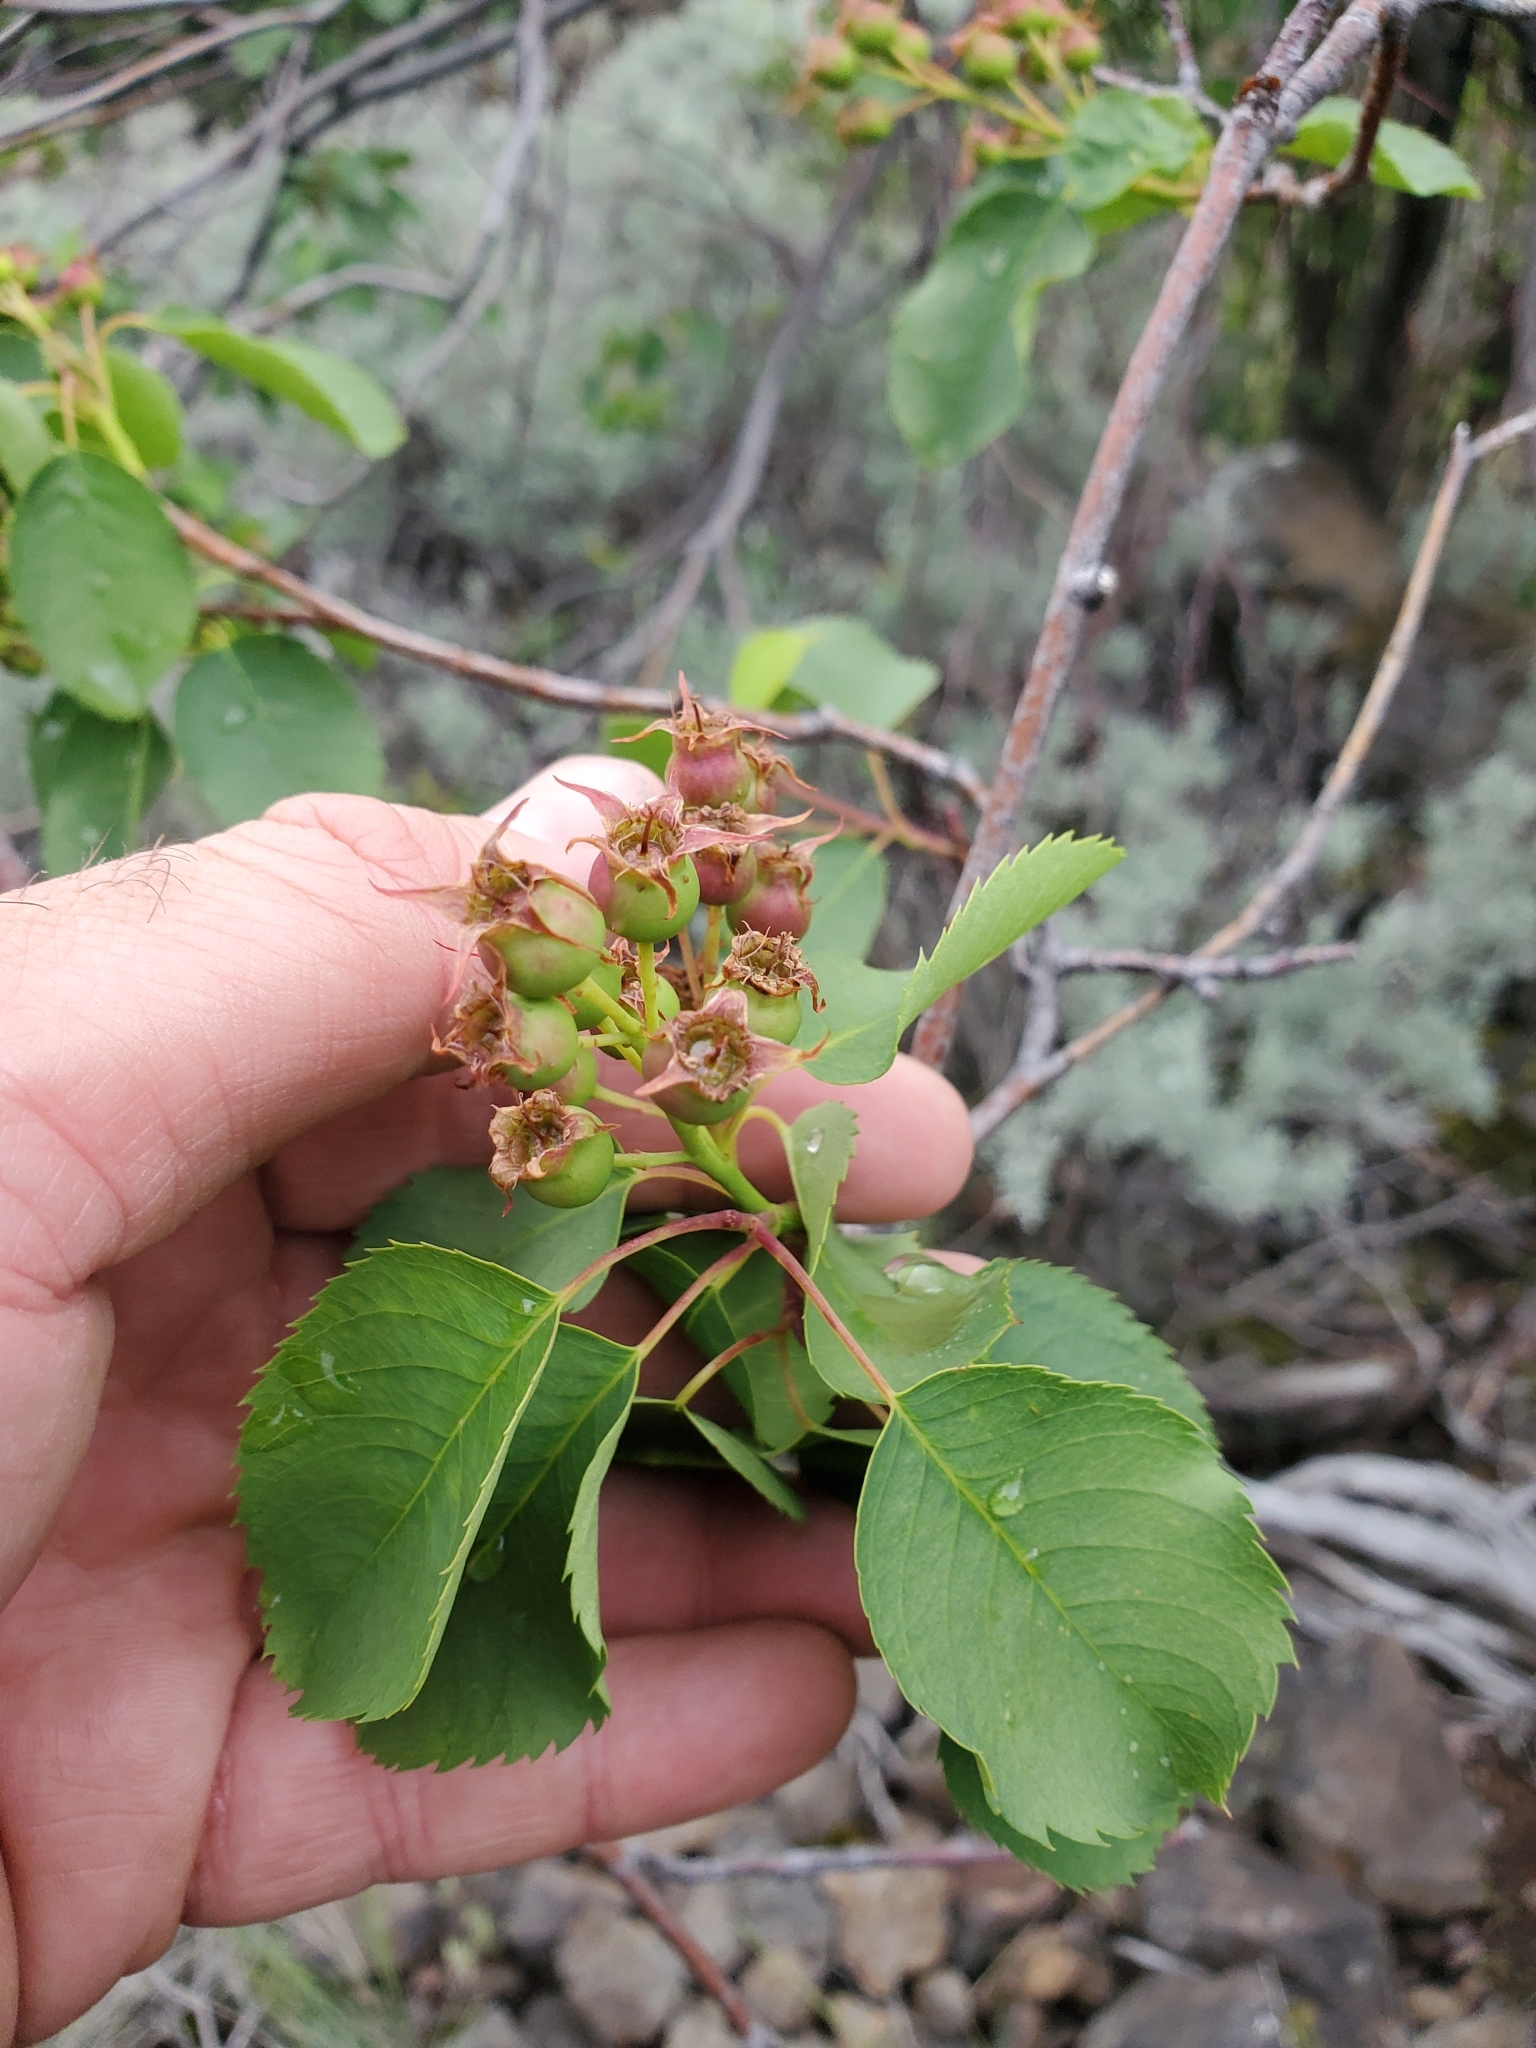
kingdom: Plantae
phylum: Tracheophyta
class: Magnoliopsida
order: Rosales
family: Rosaceae
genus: Amelanchier
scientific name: Amelanchier alnifolia
